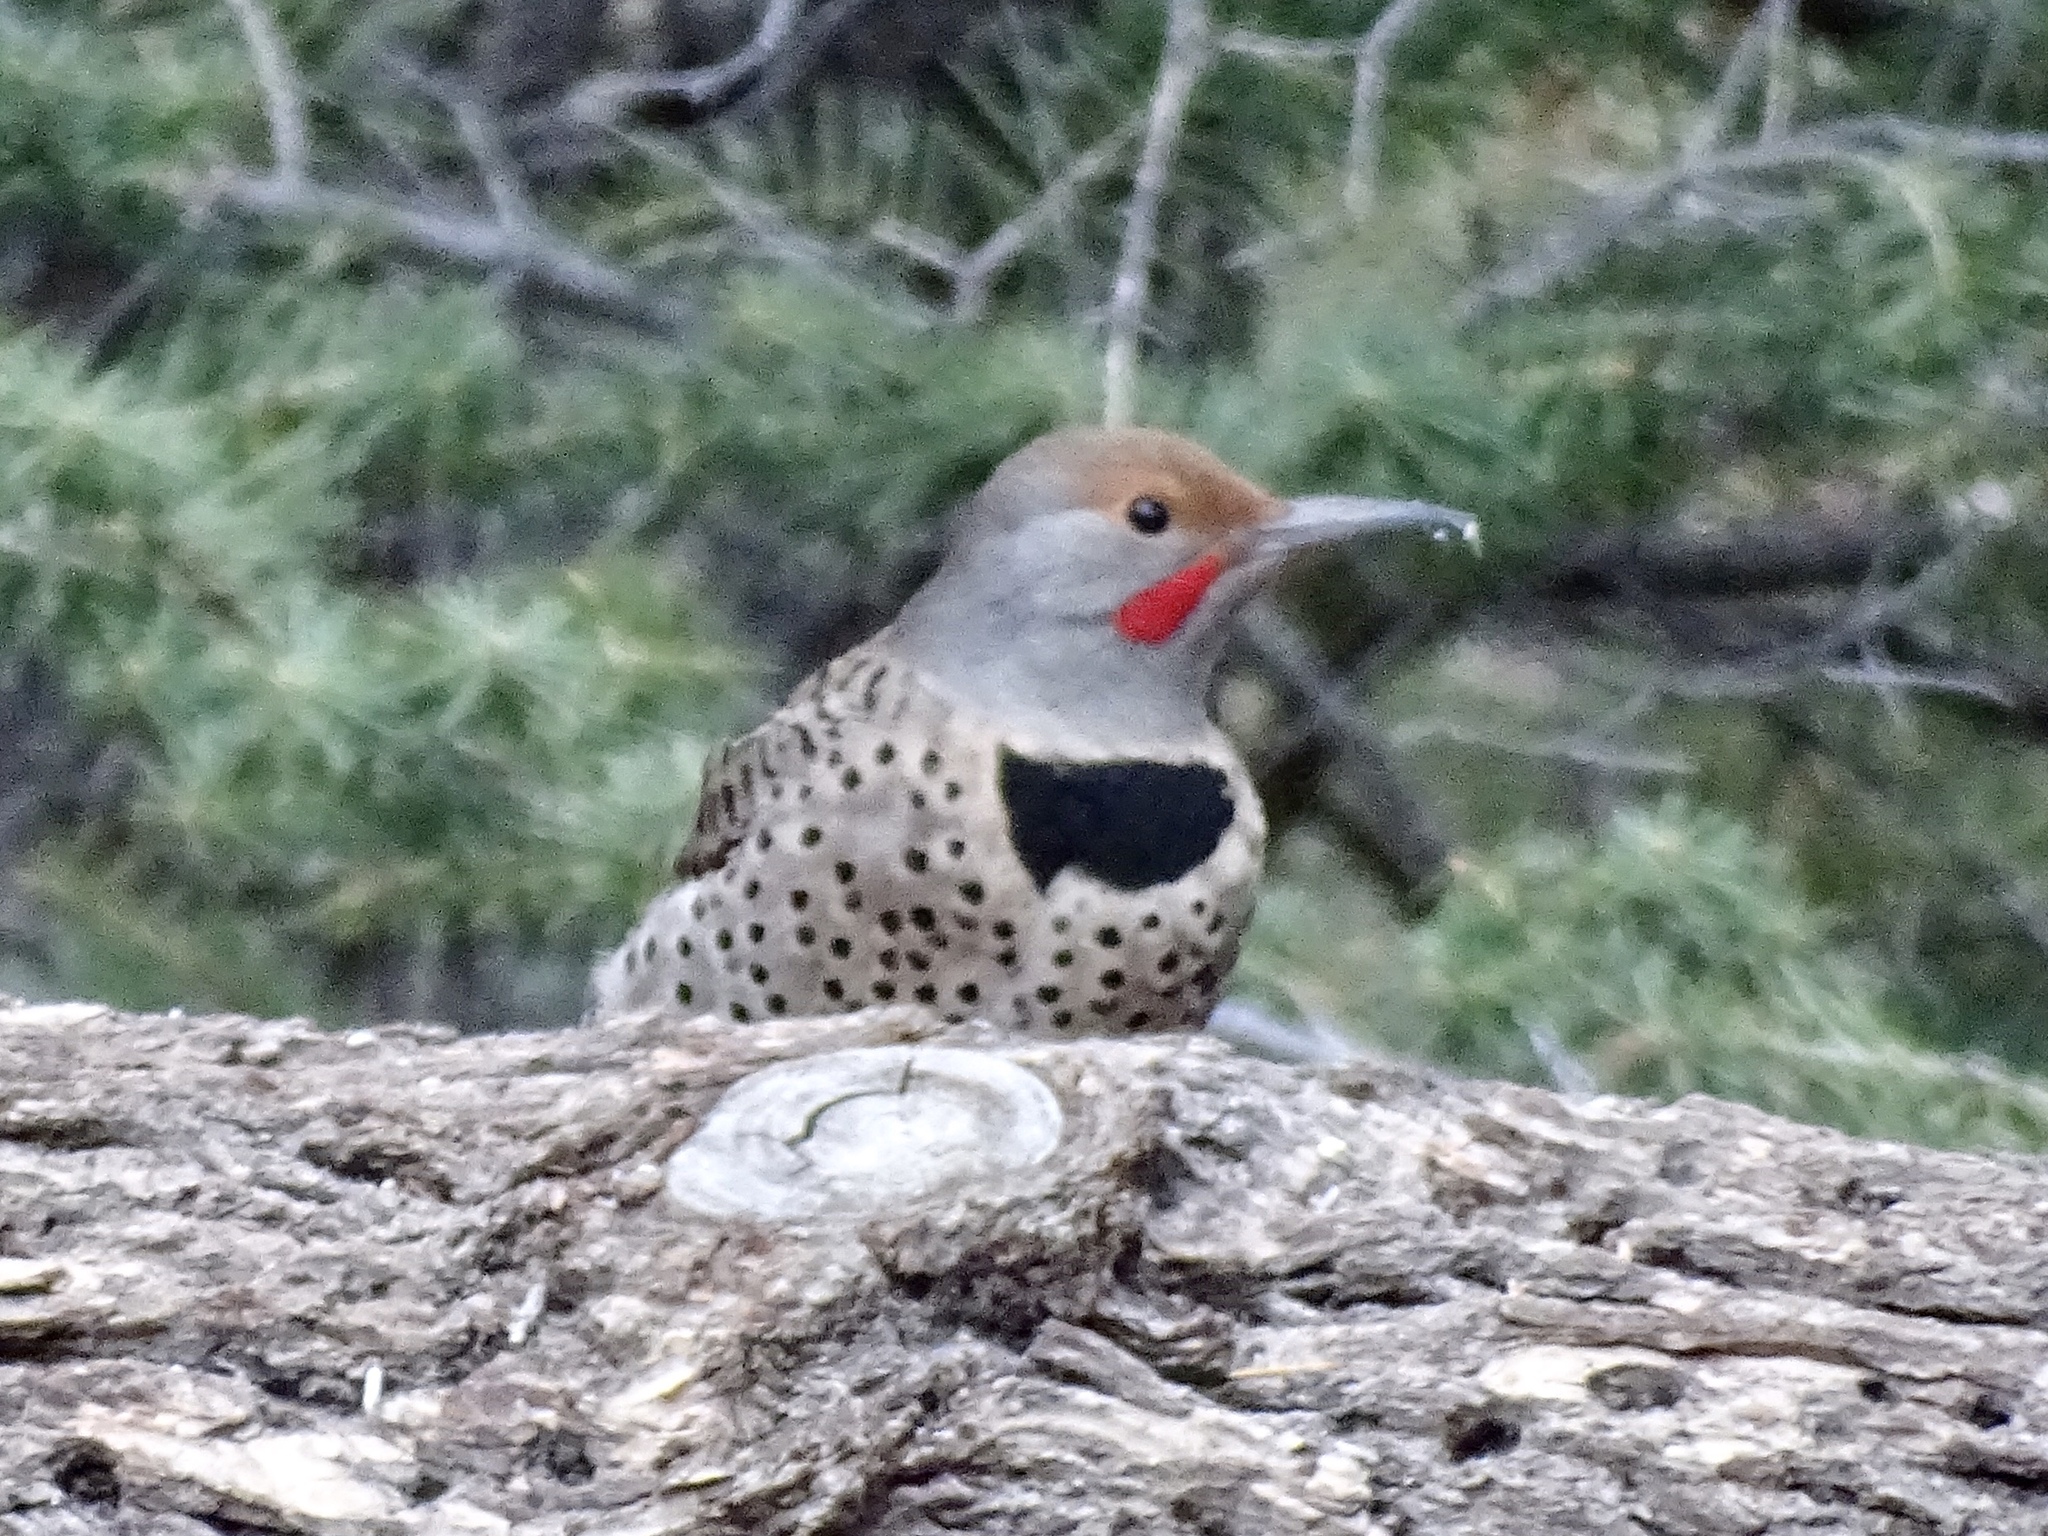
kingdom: Animalia
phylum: Chordata
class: Aves
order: Piciformes
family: Picidae
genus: Colaptes
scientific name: Colaptes auratus
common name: Northern flicker
